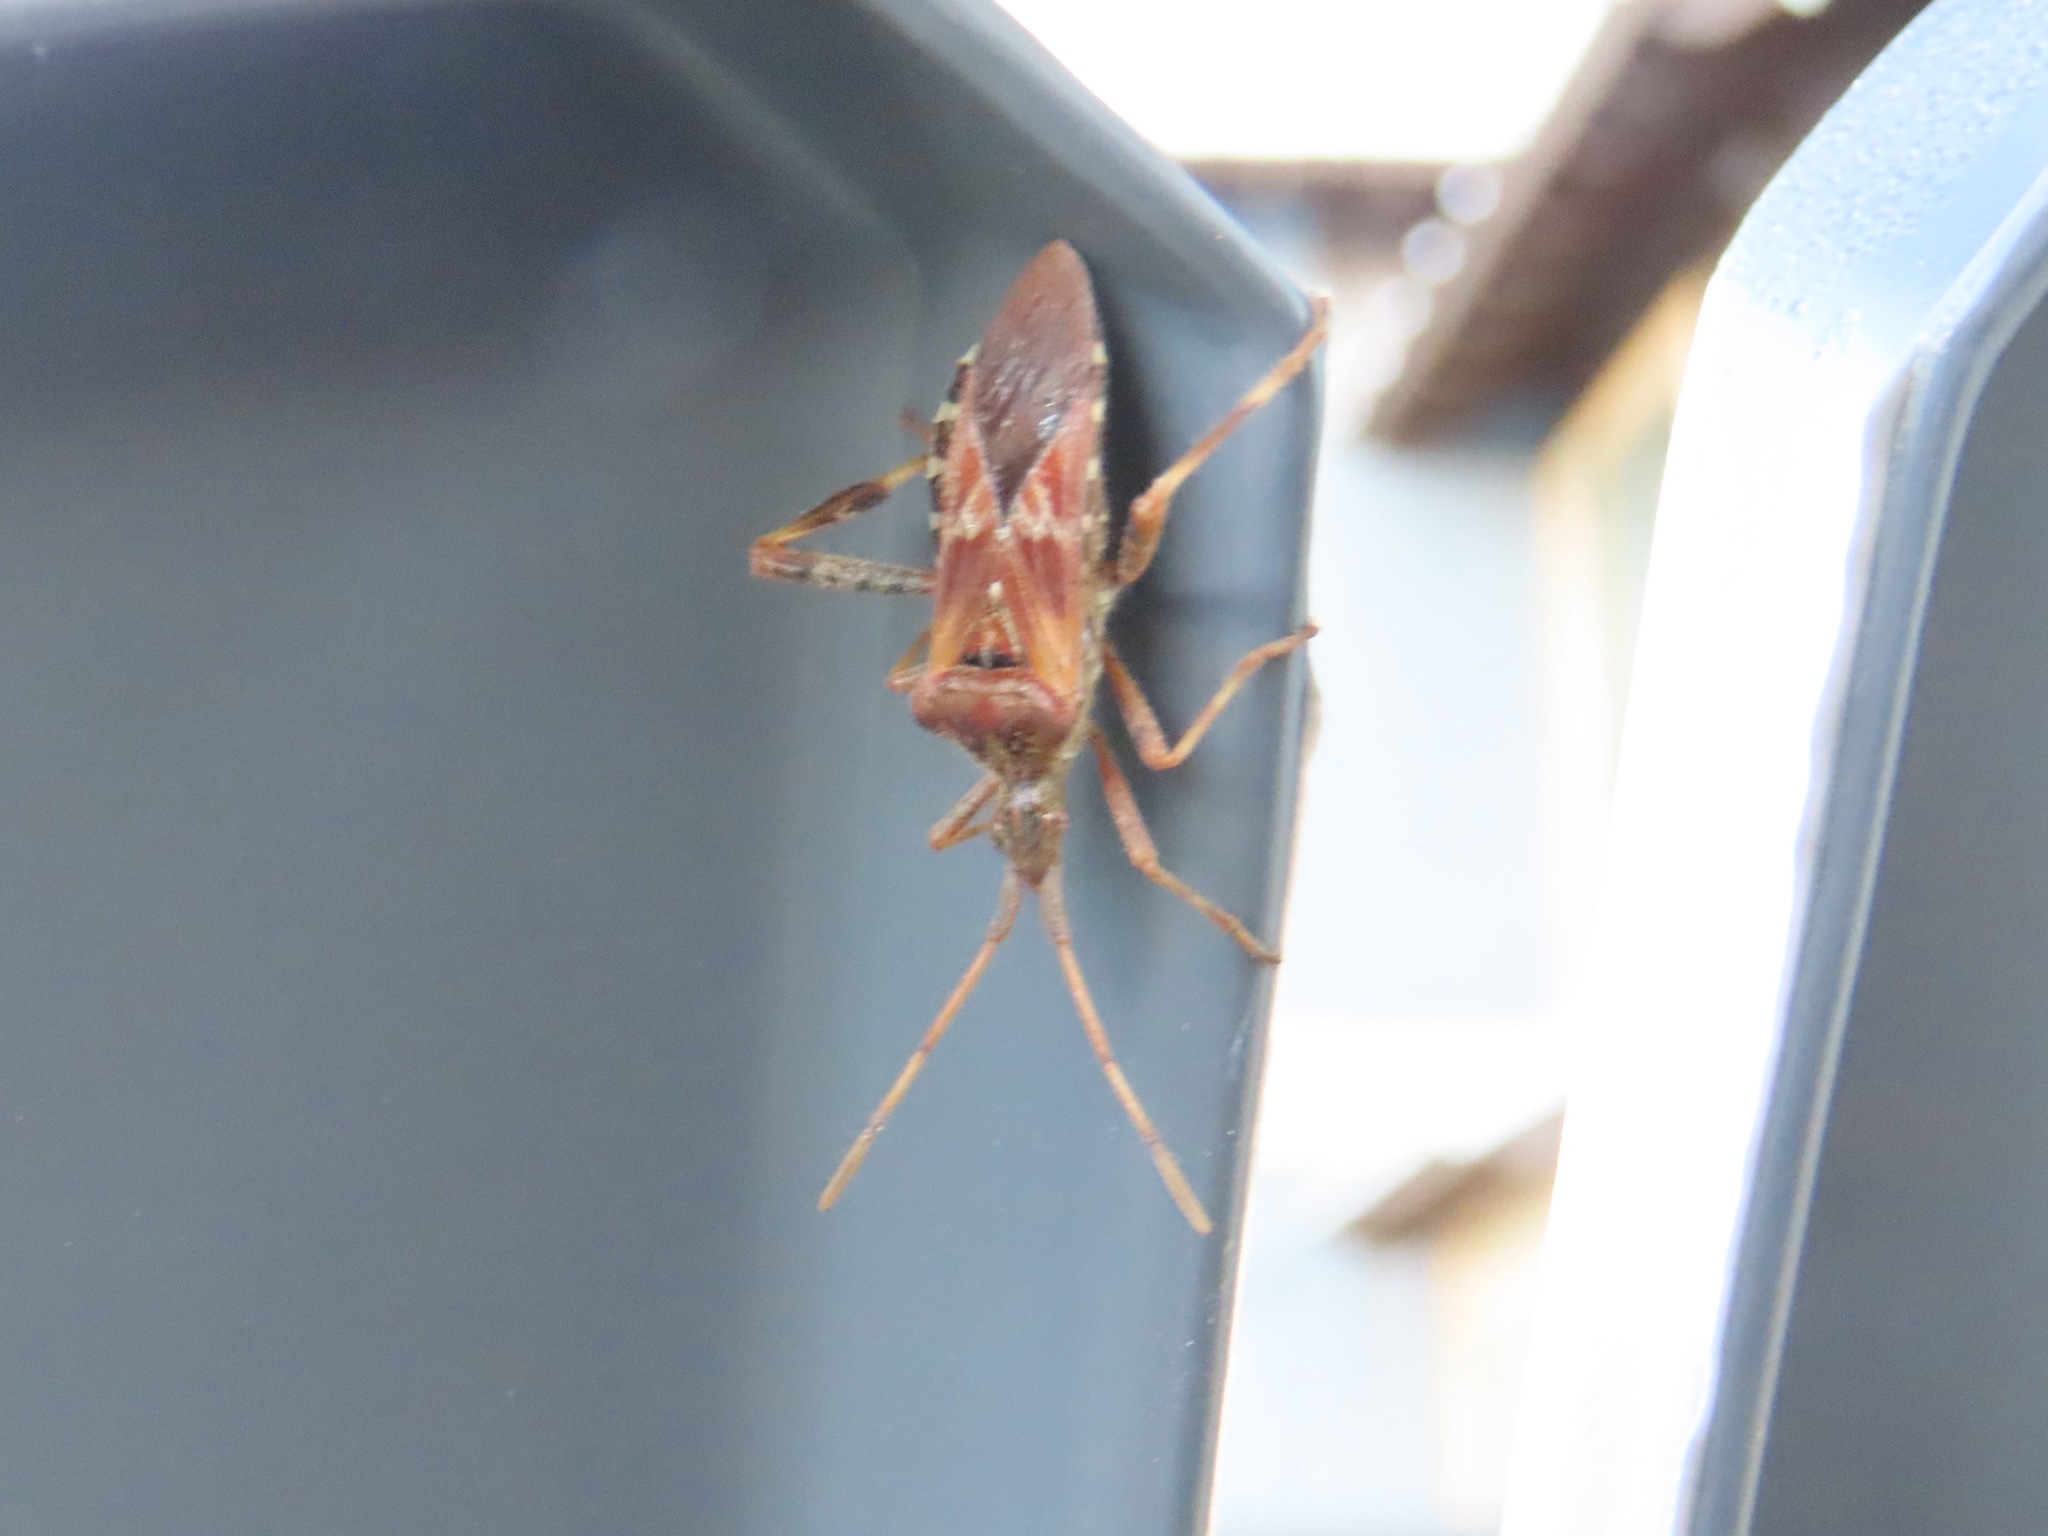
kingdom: Animalia
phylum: Arthropoda
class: Insecta
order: Hemiptera
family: Coreidae
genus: Leptoglossus
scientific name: Leptoglossus occidentalis
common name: Western conifer-seed bug
